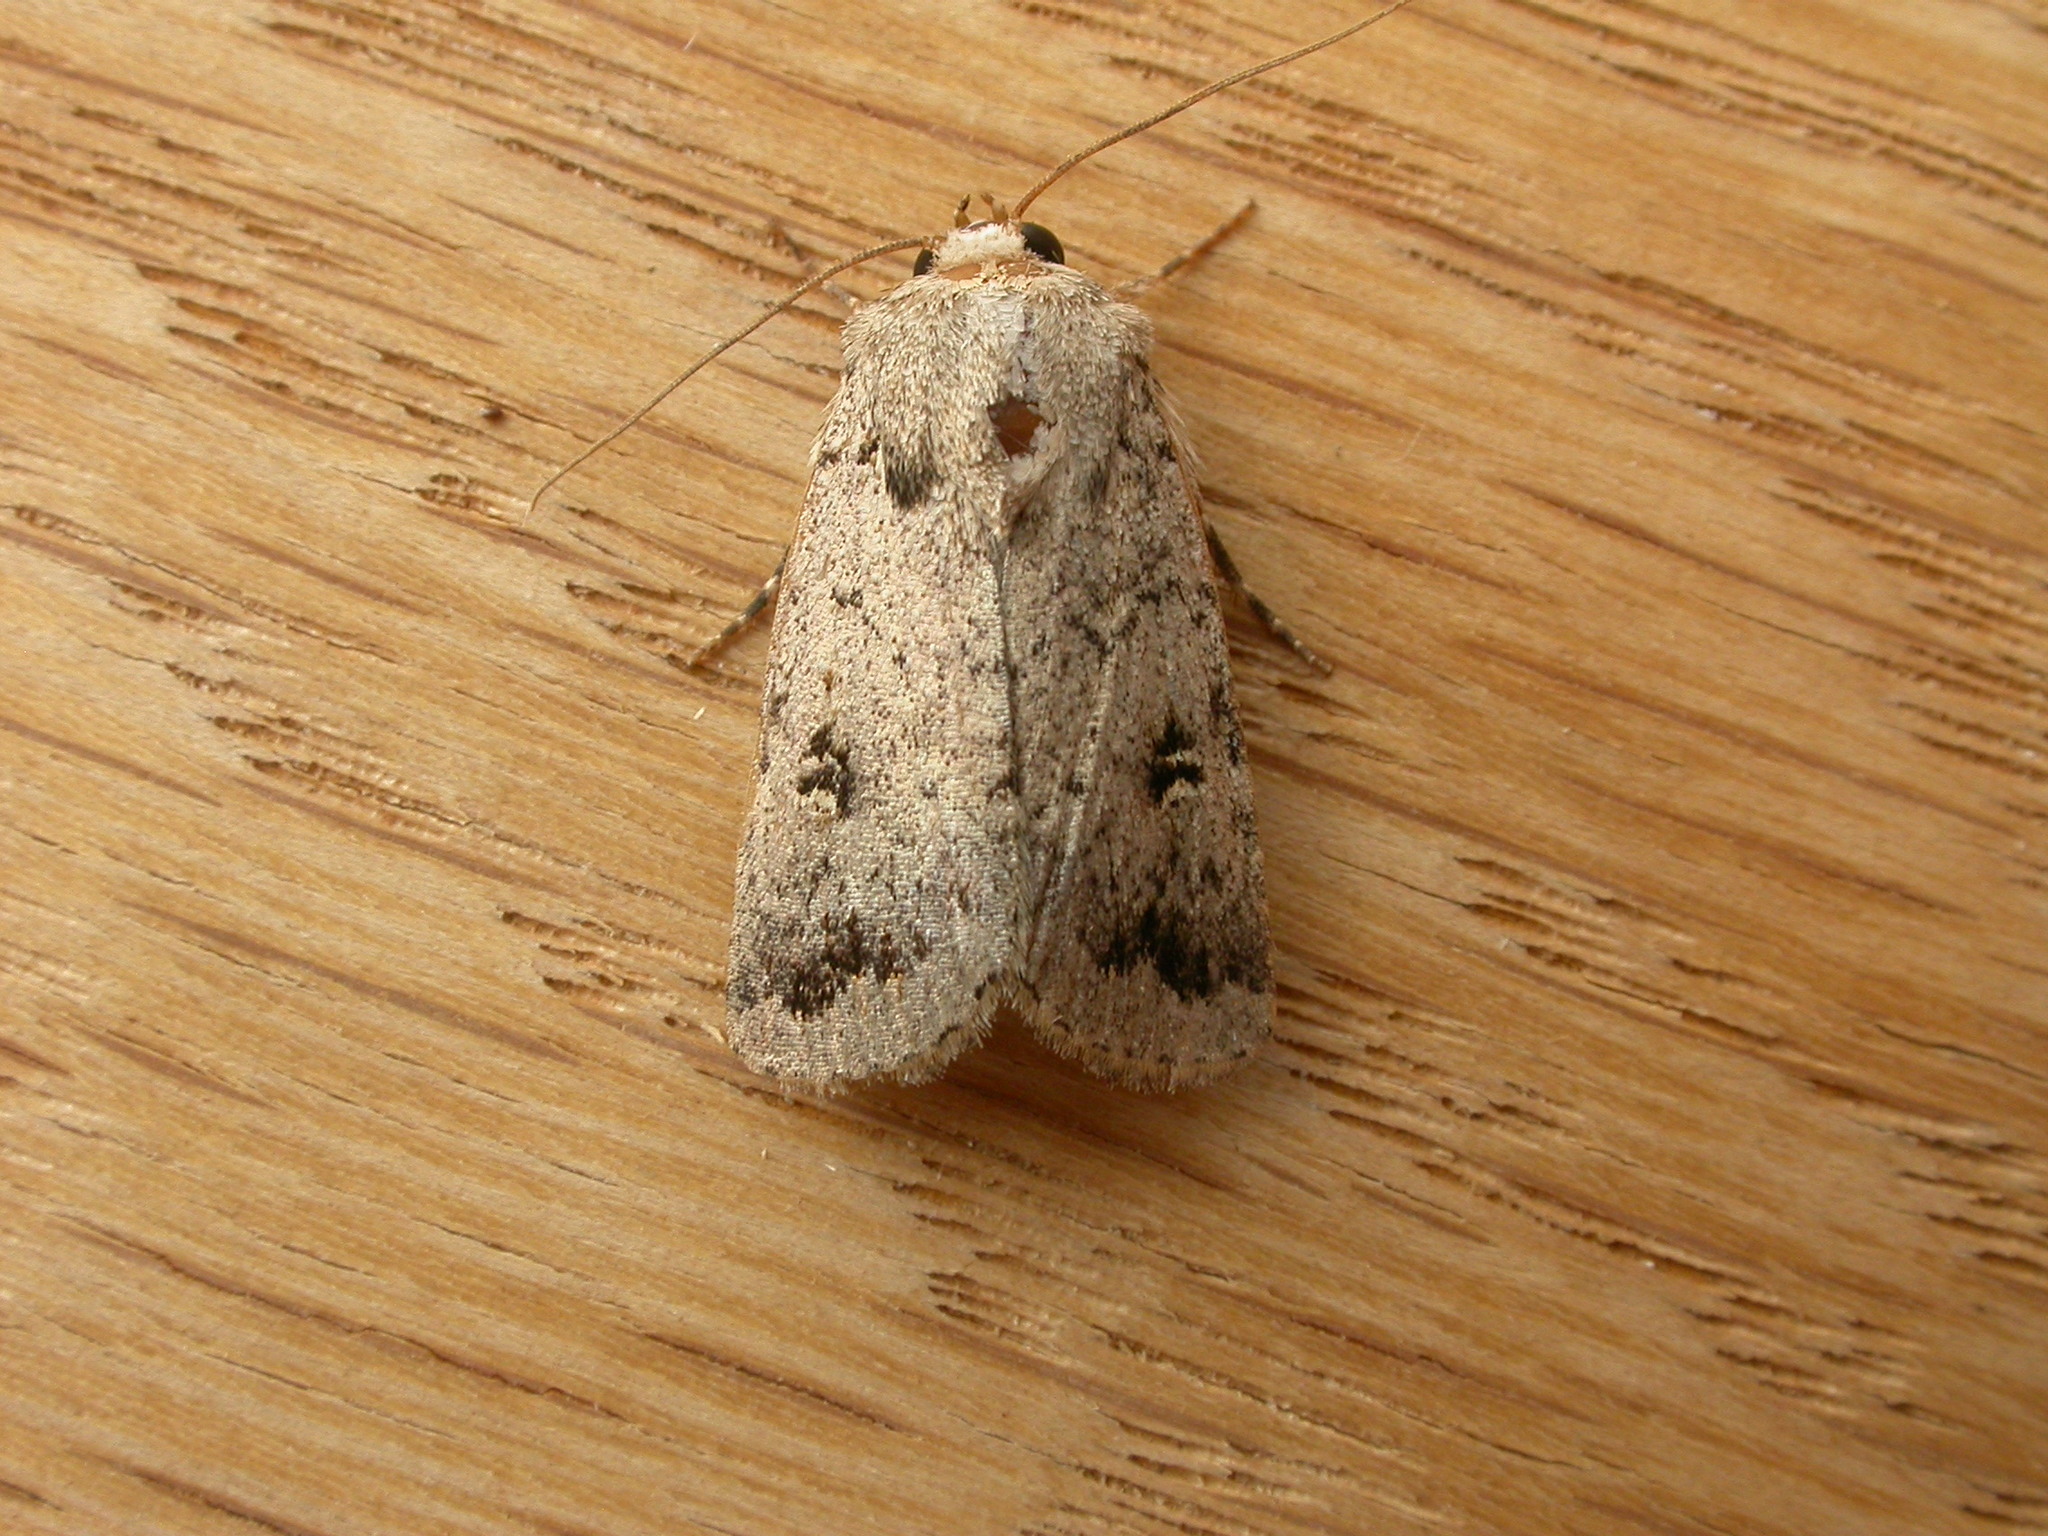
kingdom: Animalia
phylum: Arthropoda
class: Insecta
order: Lepidoptera
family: Noctuidae
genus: Proteuxoa
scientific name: Proteuxoa capularis
